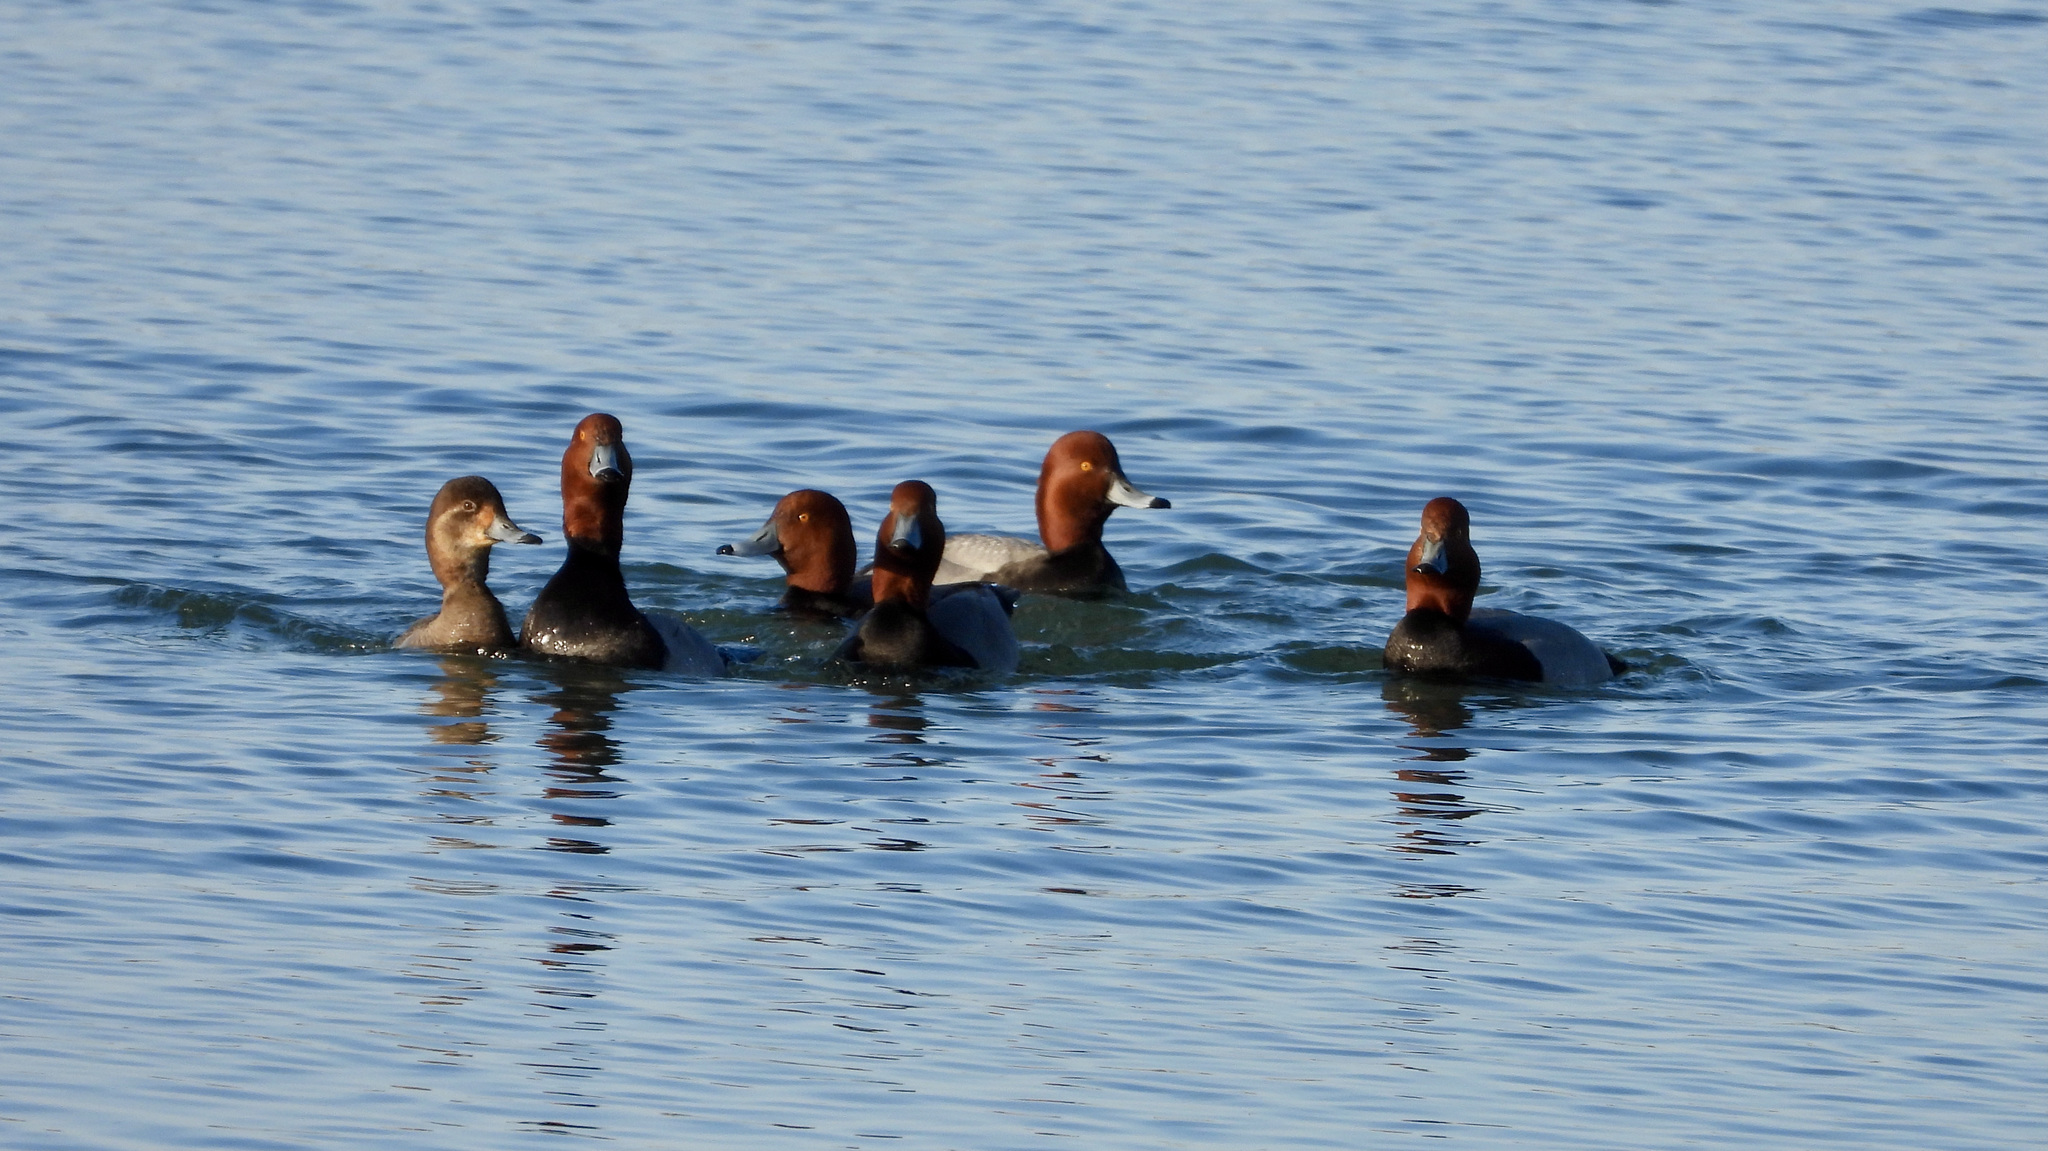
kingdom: Animalia
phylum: Chordata
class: Aves
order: Anseriformes
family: Anatidae
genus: Aythya
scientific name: Aythya americana
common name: Redhead
